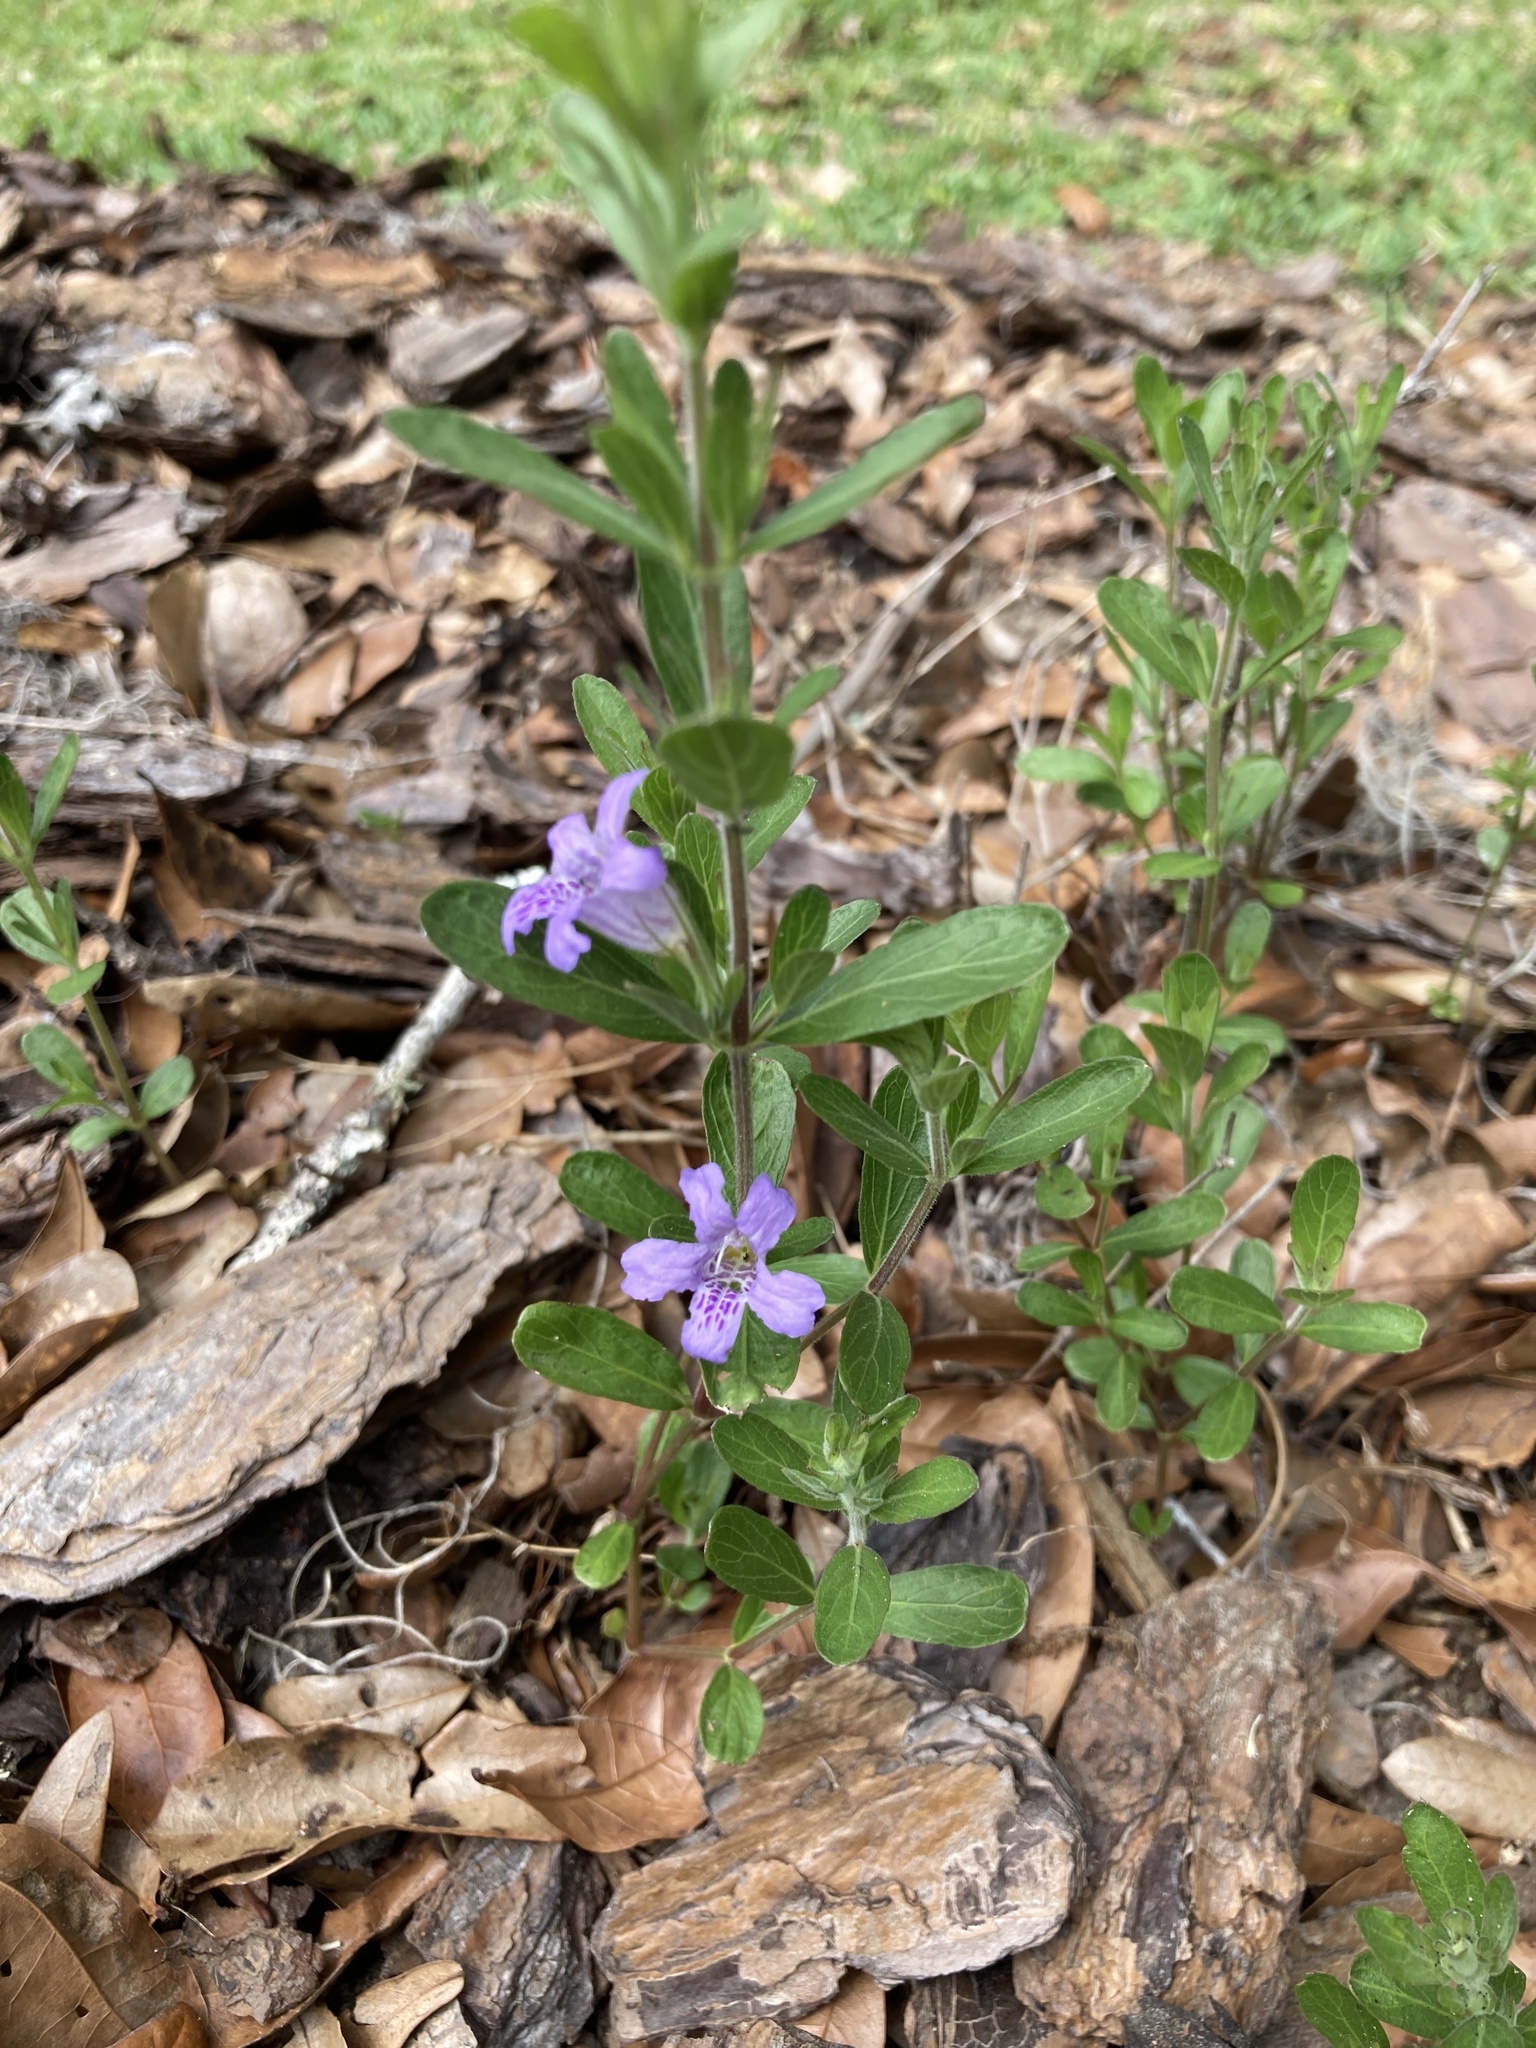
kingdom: Plantae
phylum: Tracheophyta
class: Magnoliopsida
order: Lamiales
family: Acanthaceae
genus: Dyschoriste
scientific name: Dyschoriste oblongifolia
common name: Blue twinflower
